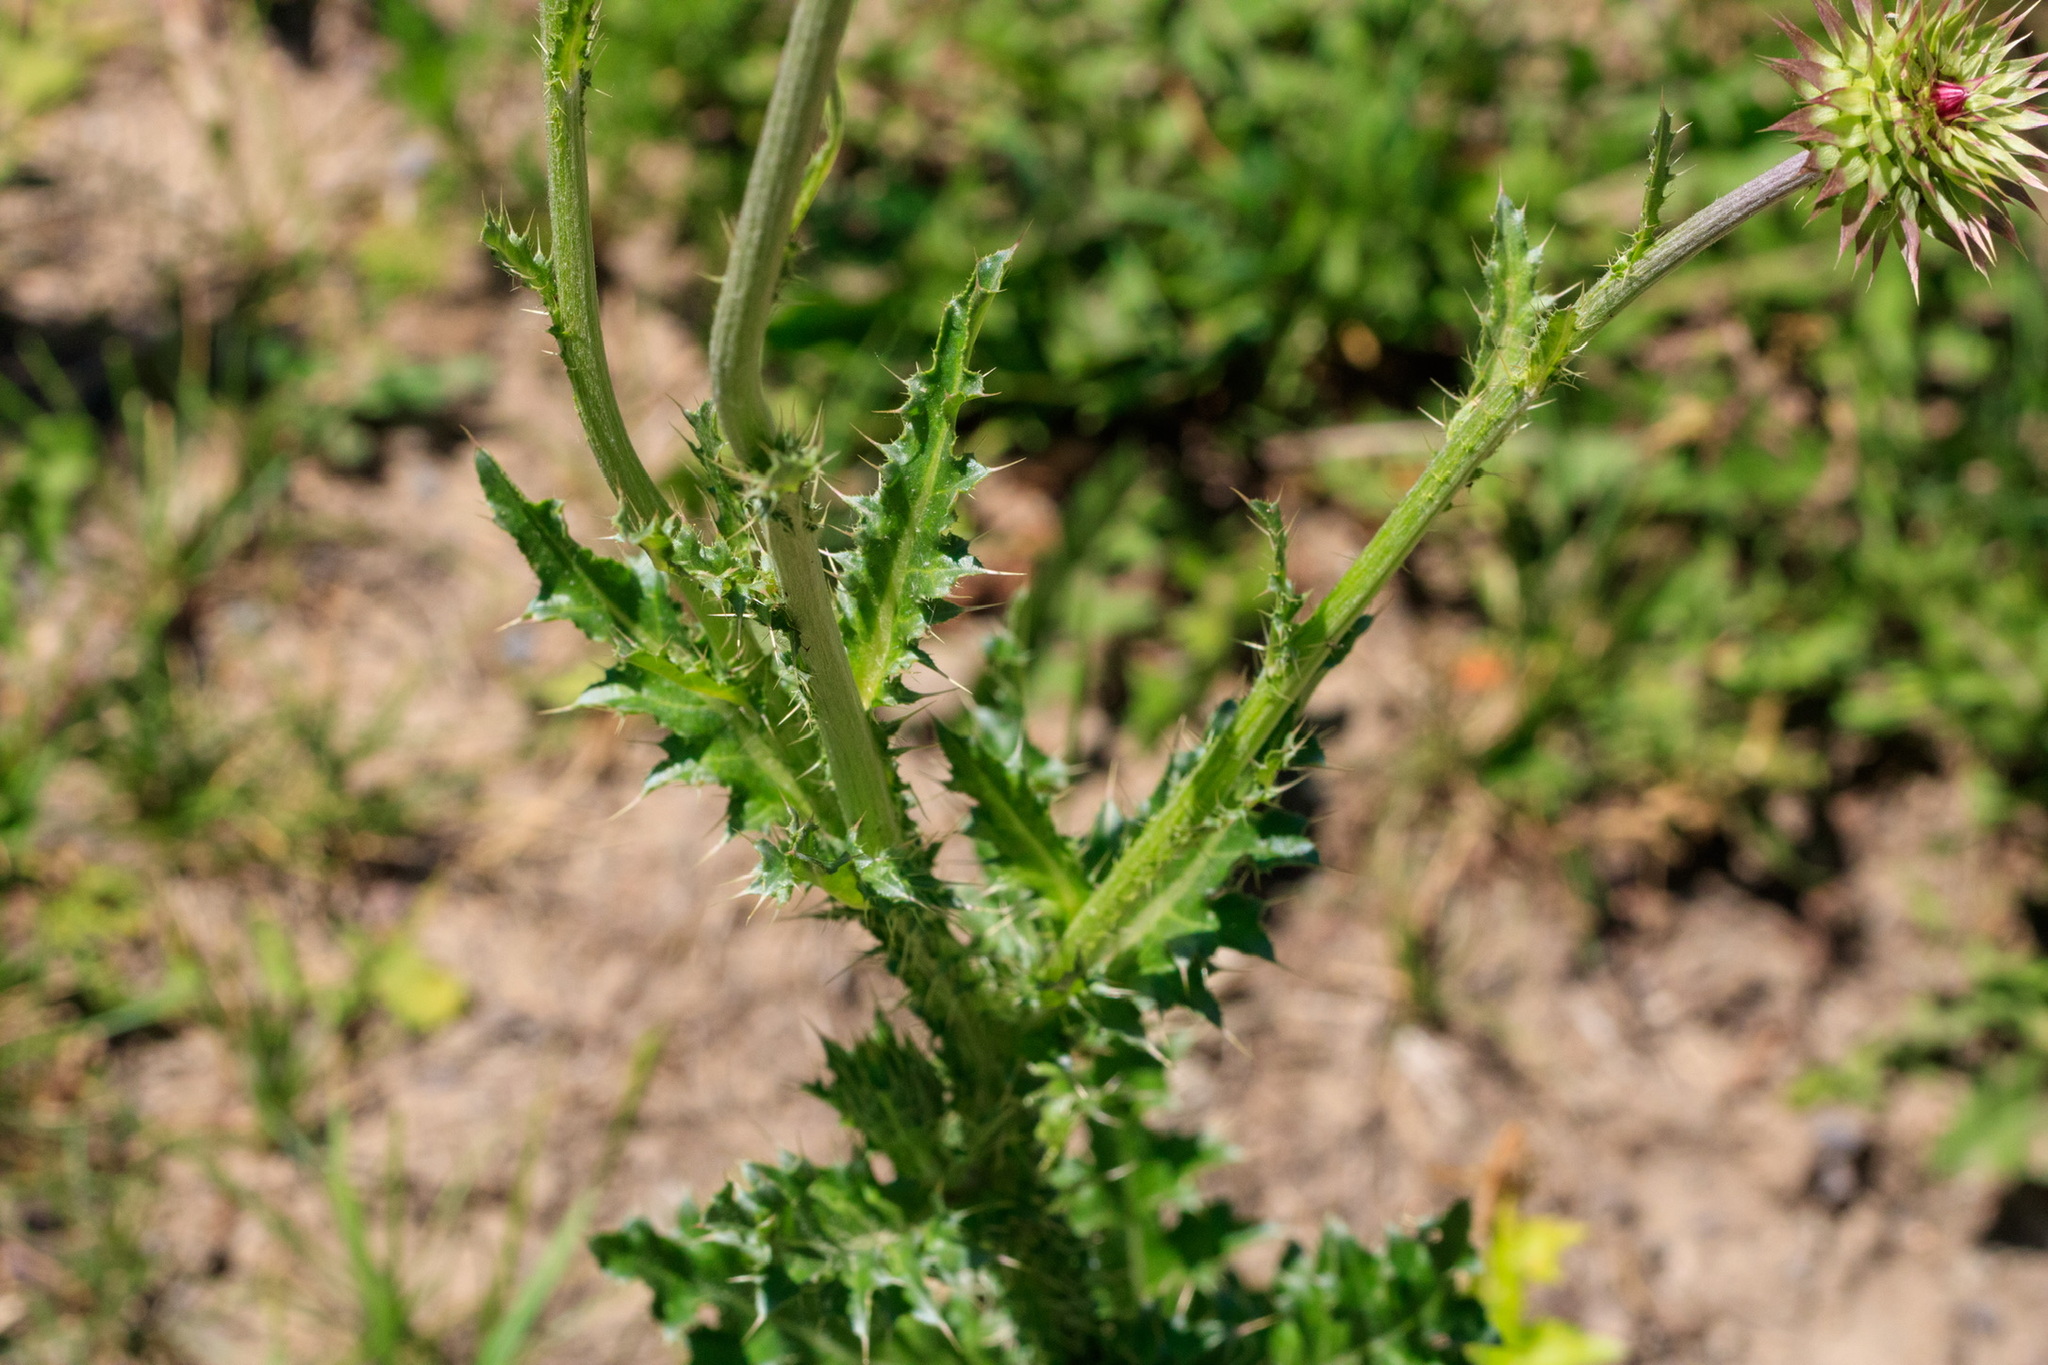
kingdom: Plantae
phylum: Tracheophyta
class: Magnoliopsida
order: Asterales
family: Asteraceae
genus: Carduus
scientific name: Carduus nutans
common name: Musk thistle
